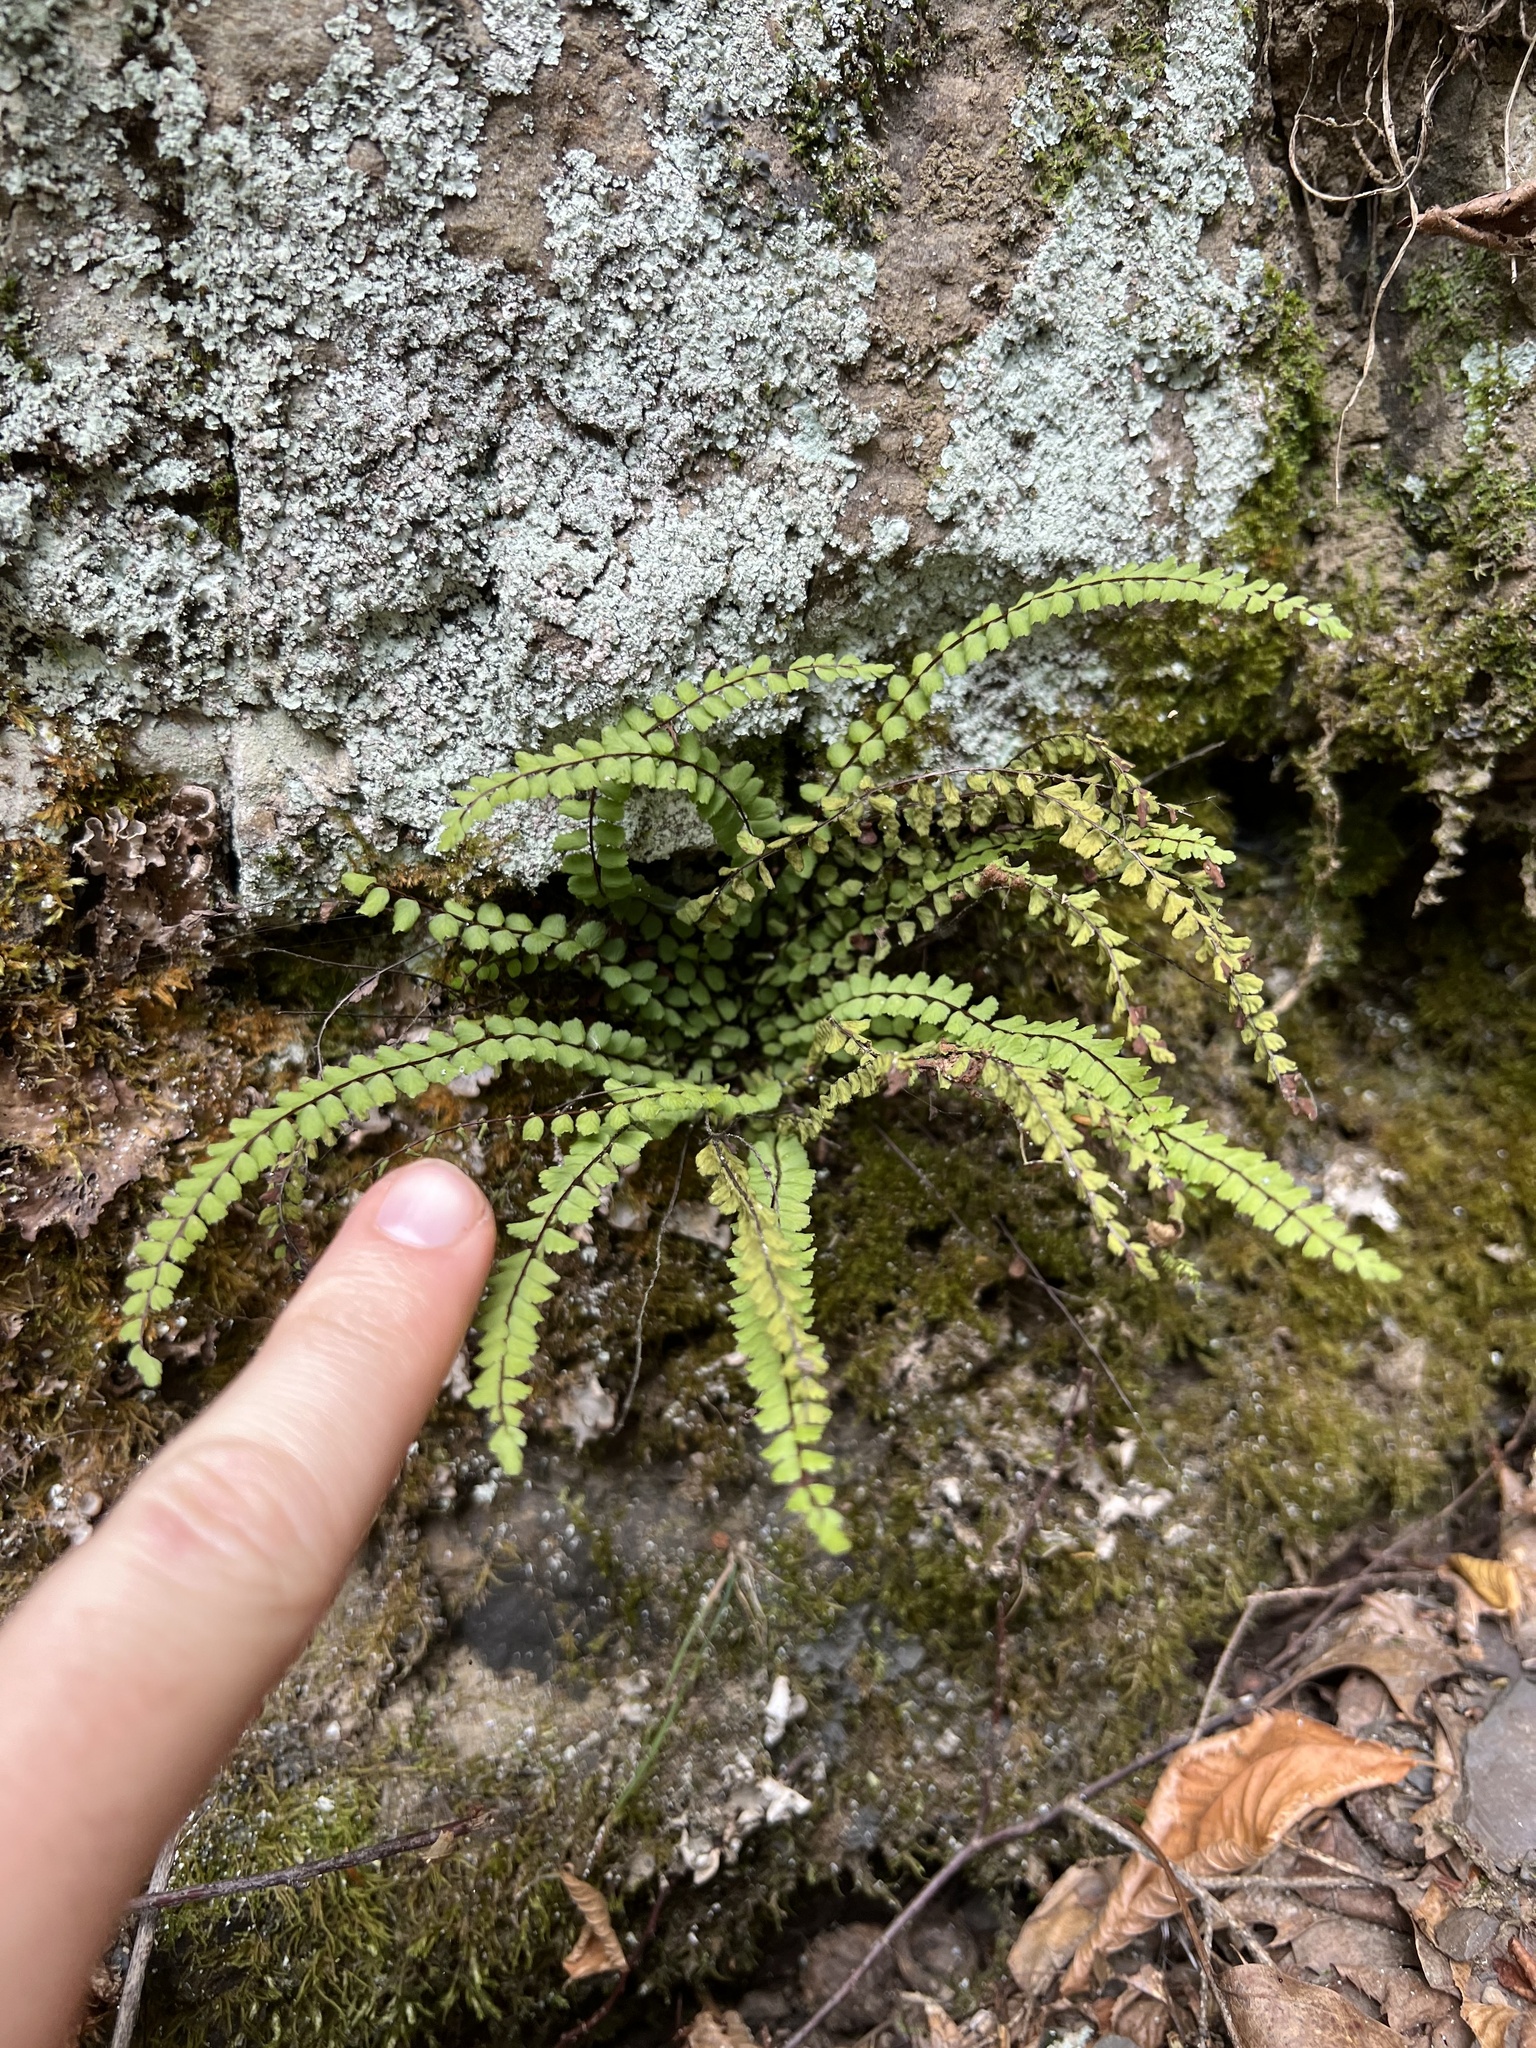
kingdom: Plantae
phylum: Tracheophyta
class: Polypodiopsida
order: Polypodiales
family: Aspleniaceae
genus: Asplenium
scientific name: Asplenium trichomanes
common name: Maidenhair spleenwort
